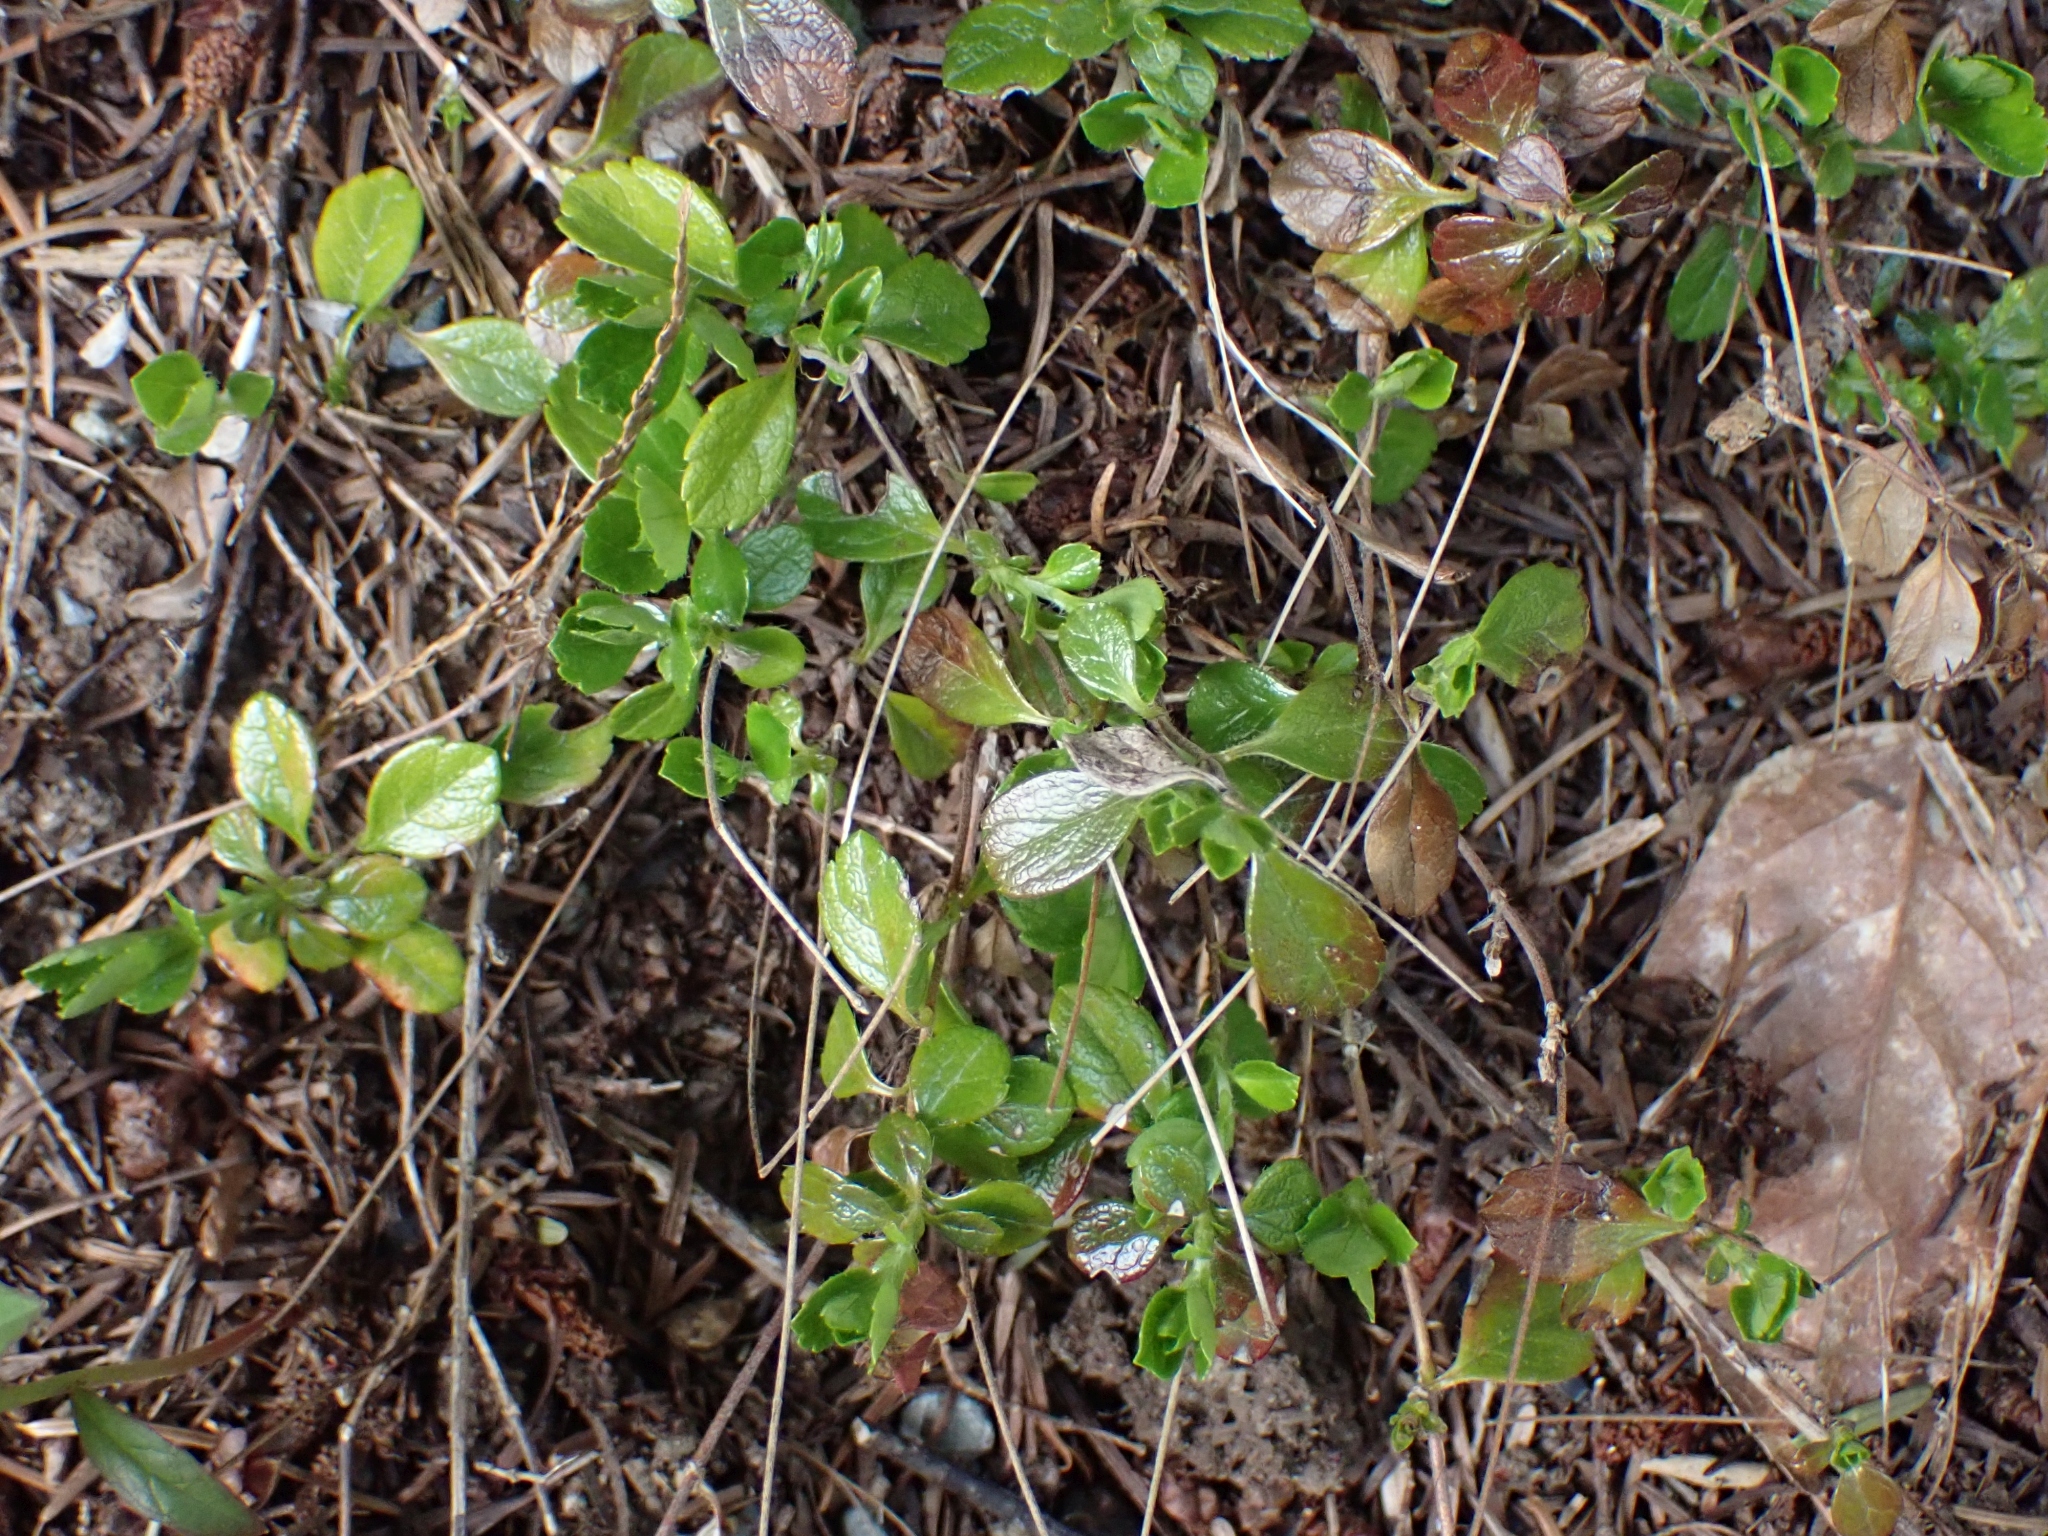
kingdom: Plantae
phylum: Tracheophyta
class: Magnoliopsida
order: Dipsacales
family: Caprifoliaceae
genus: Linnaea
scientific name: Linnaea borealis
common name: Twinflower
